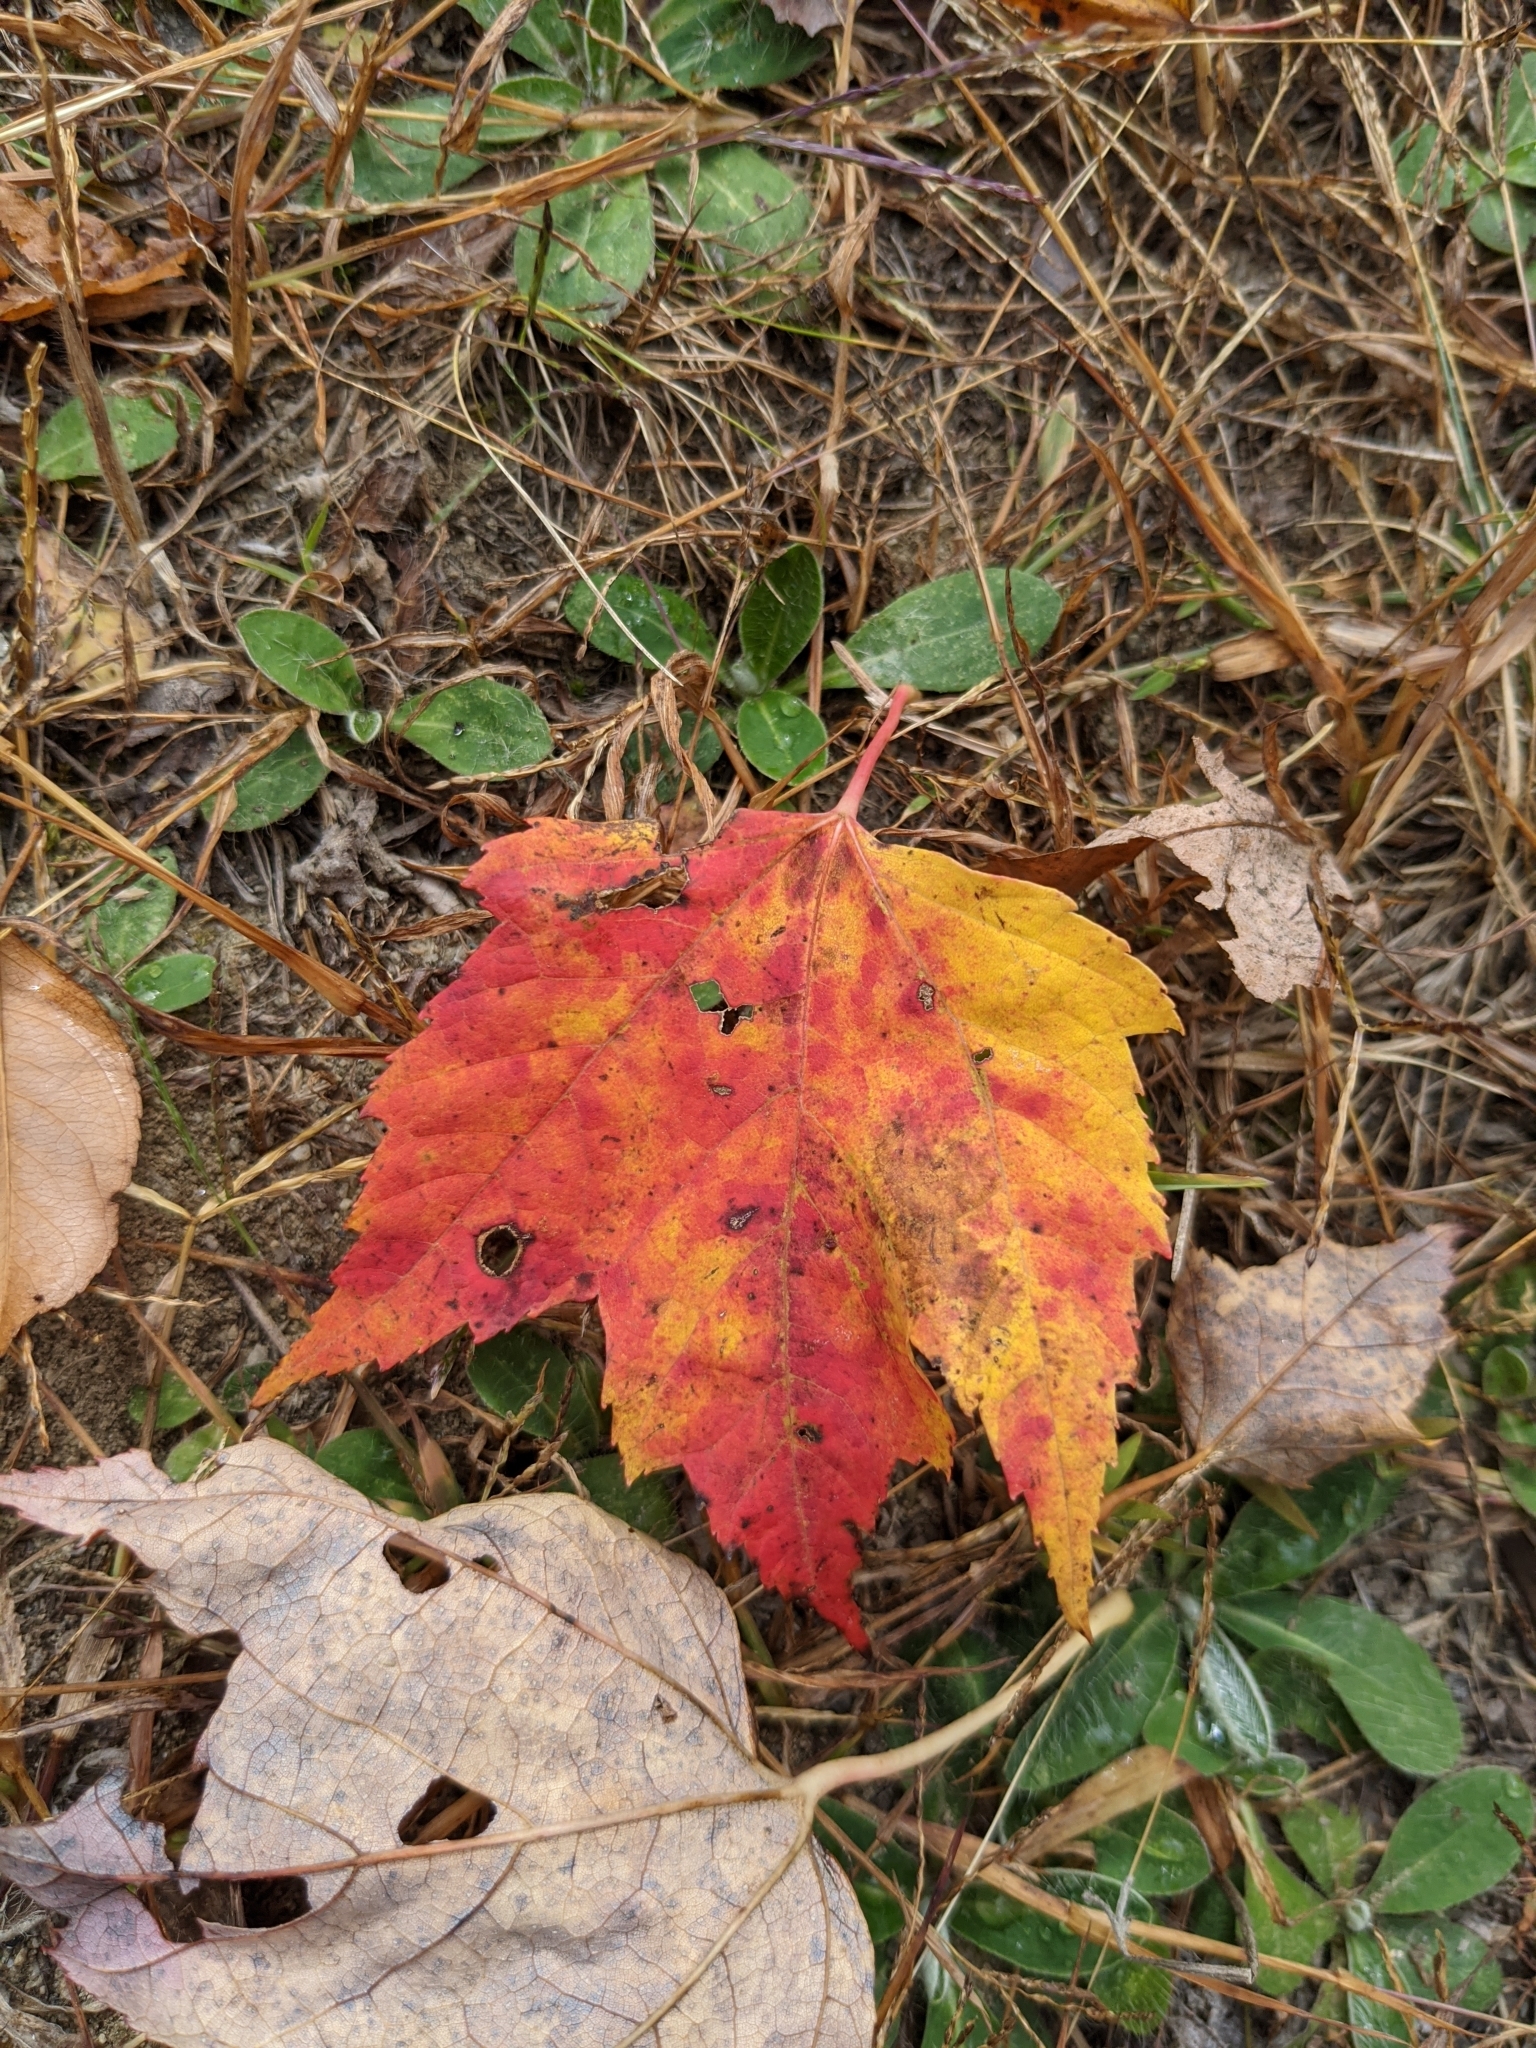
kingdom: Plantae
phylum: Tracheophyta
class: Magnoliopsida
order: Sapindales
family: Sapindaceae
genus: Acer
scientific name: Acer rubrum
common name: Red maple
